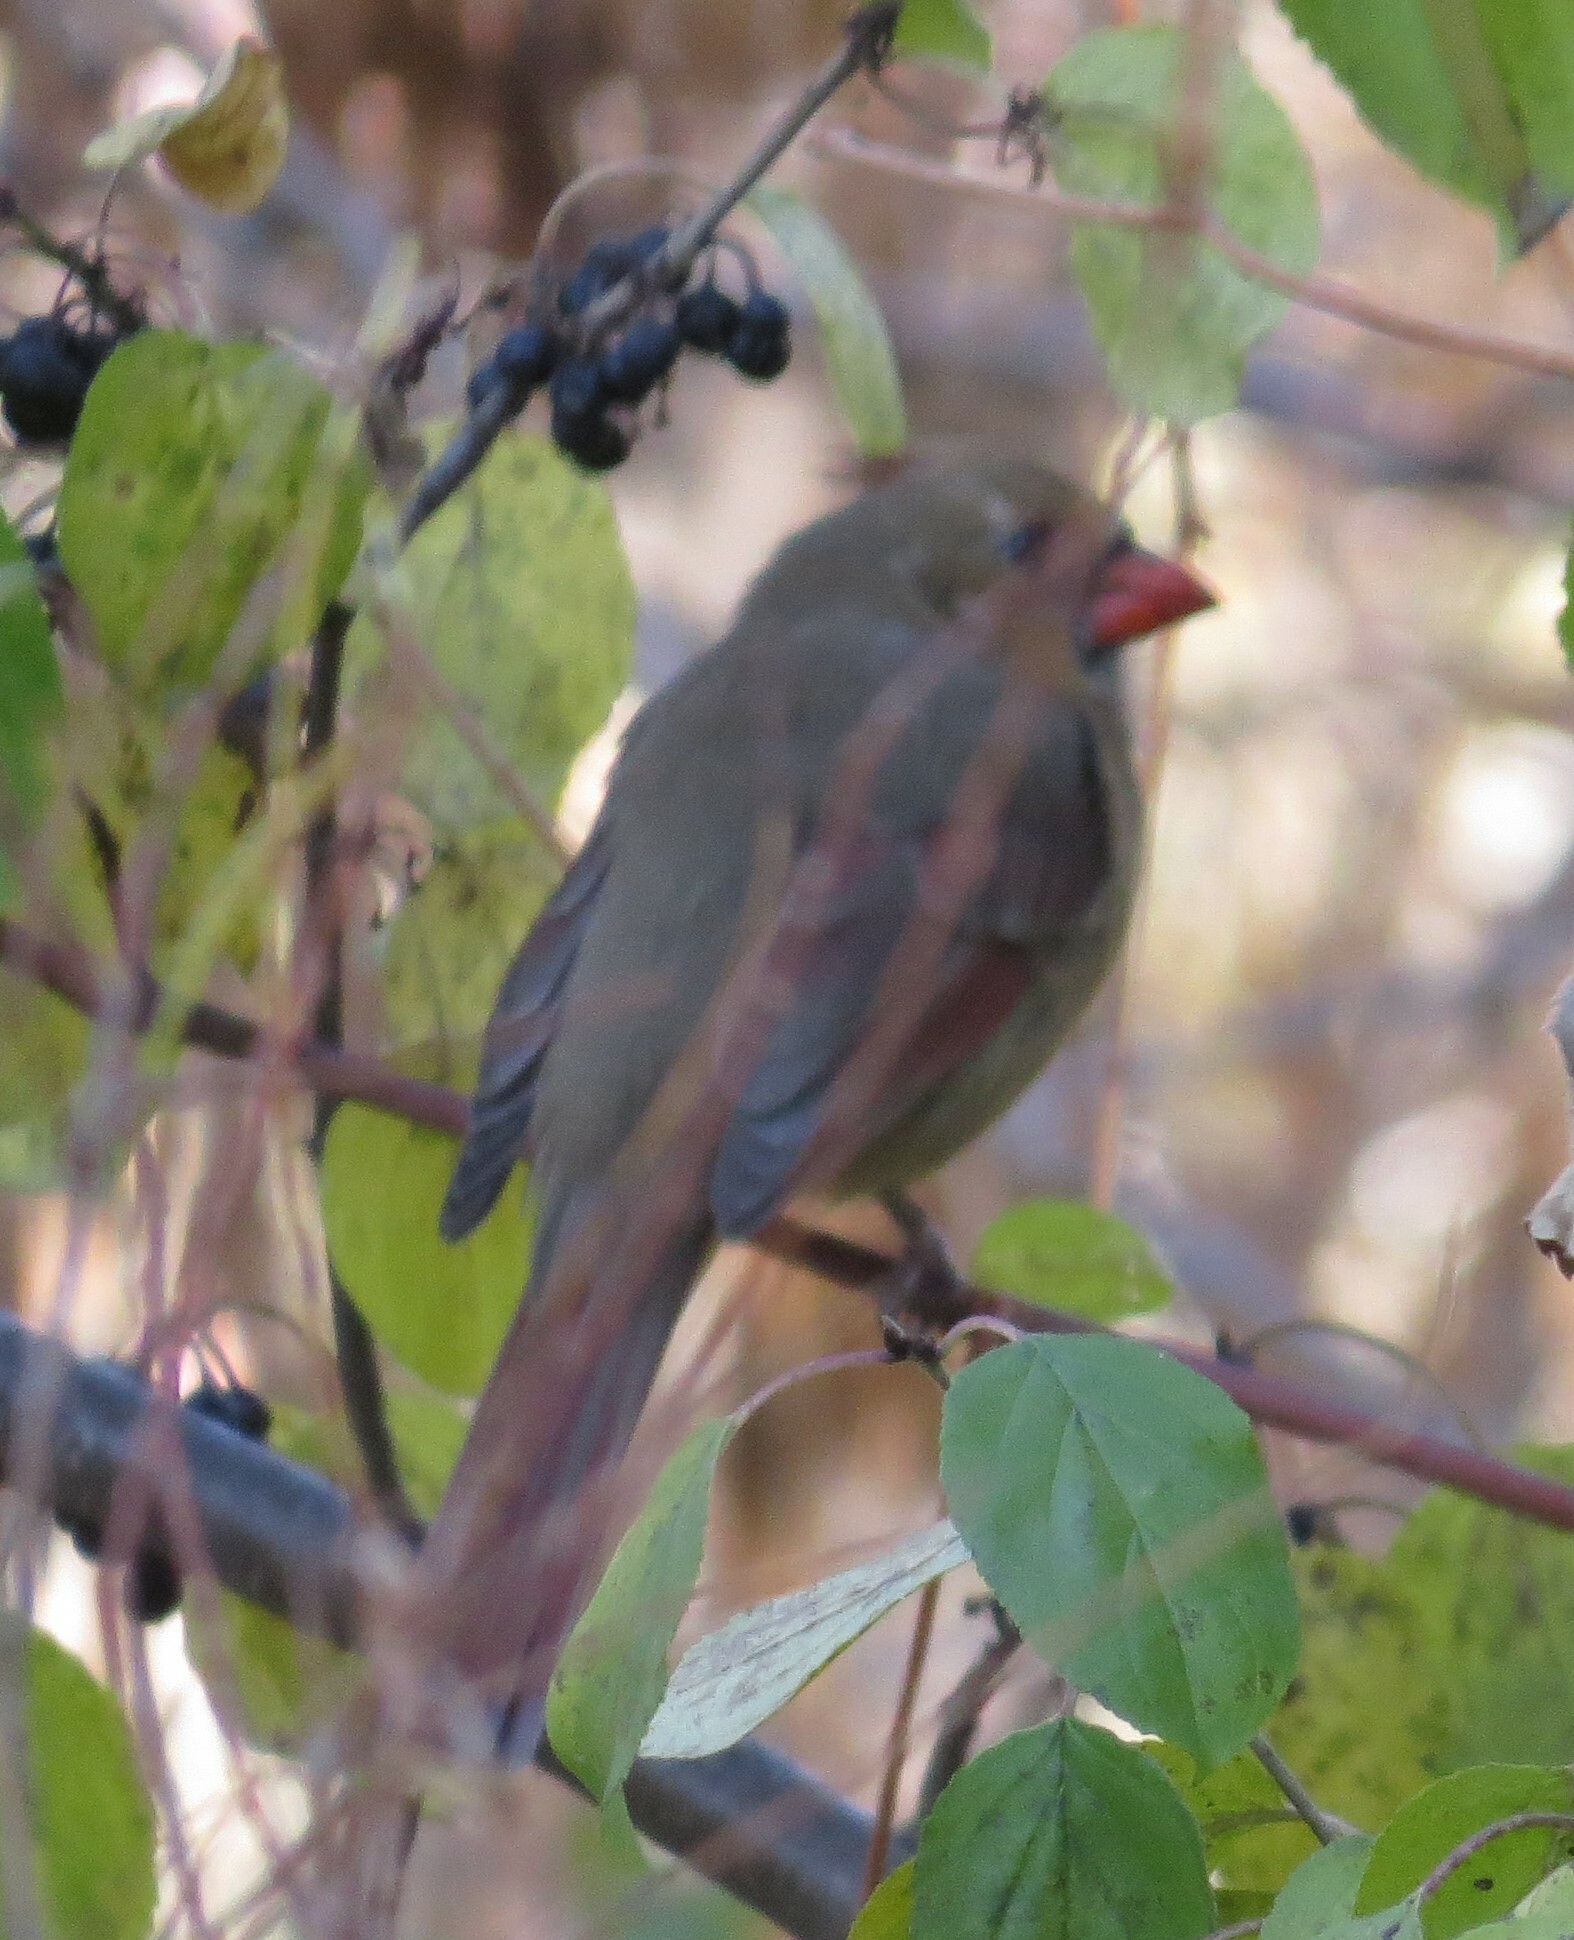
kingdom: Animalia
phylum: Chordata
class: Aves
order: Passeriformes
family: Cardinalidae
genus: Cardinalis
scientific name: Cardinalis cardinalis
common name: Northern cardinal
